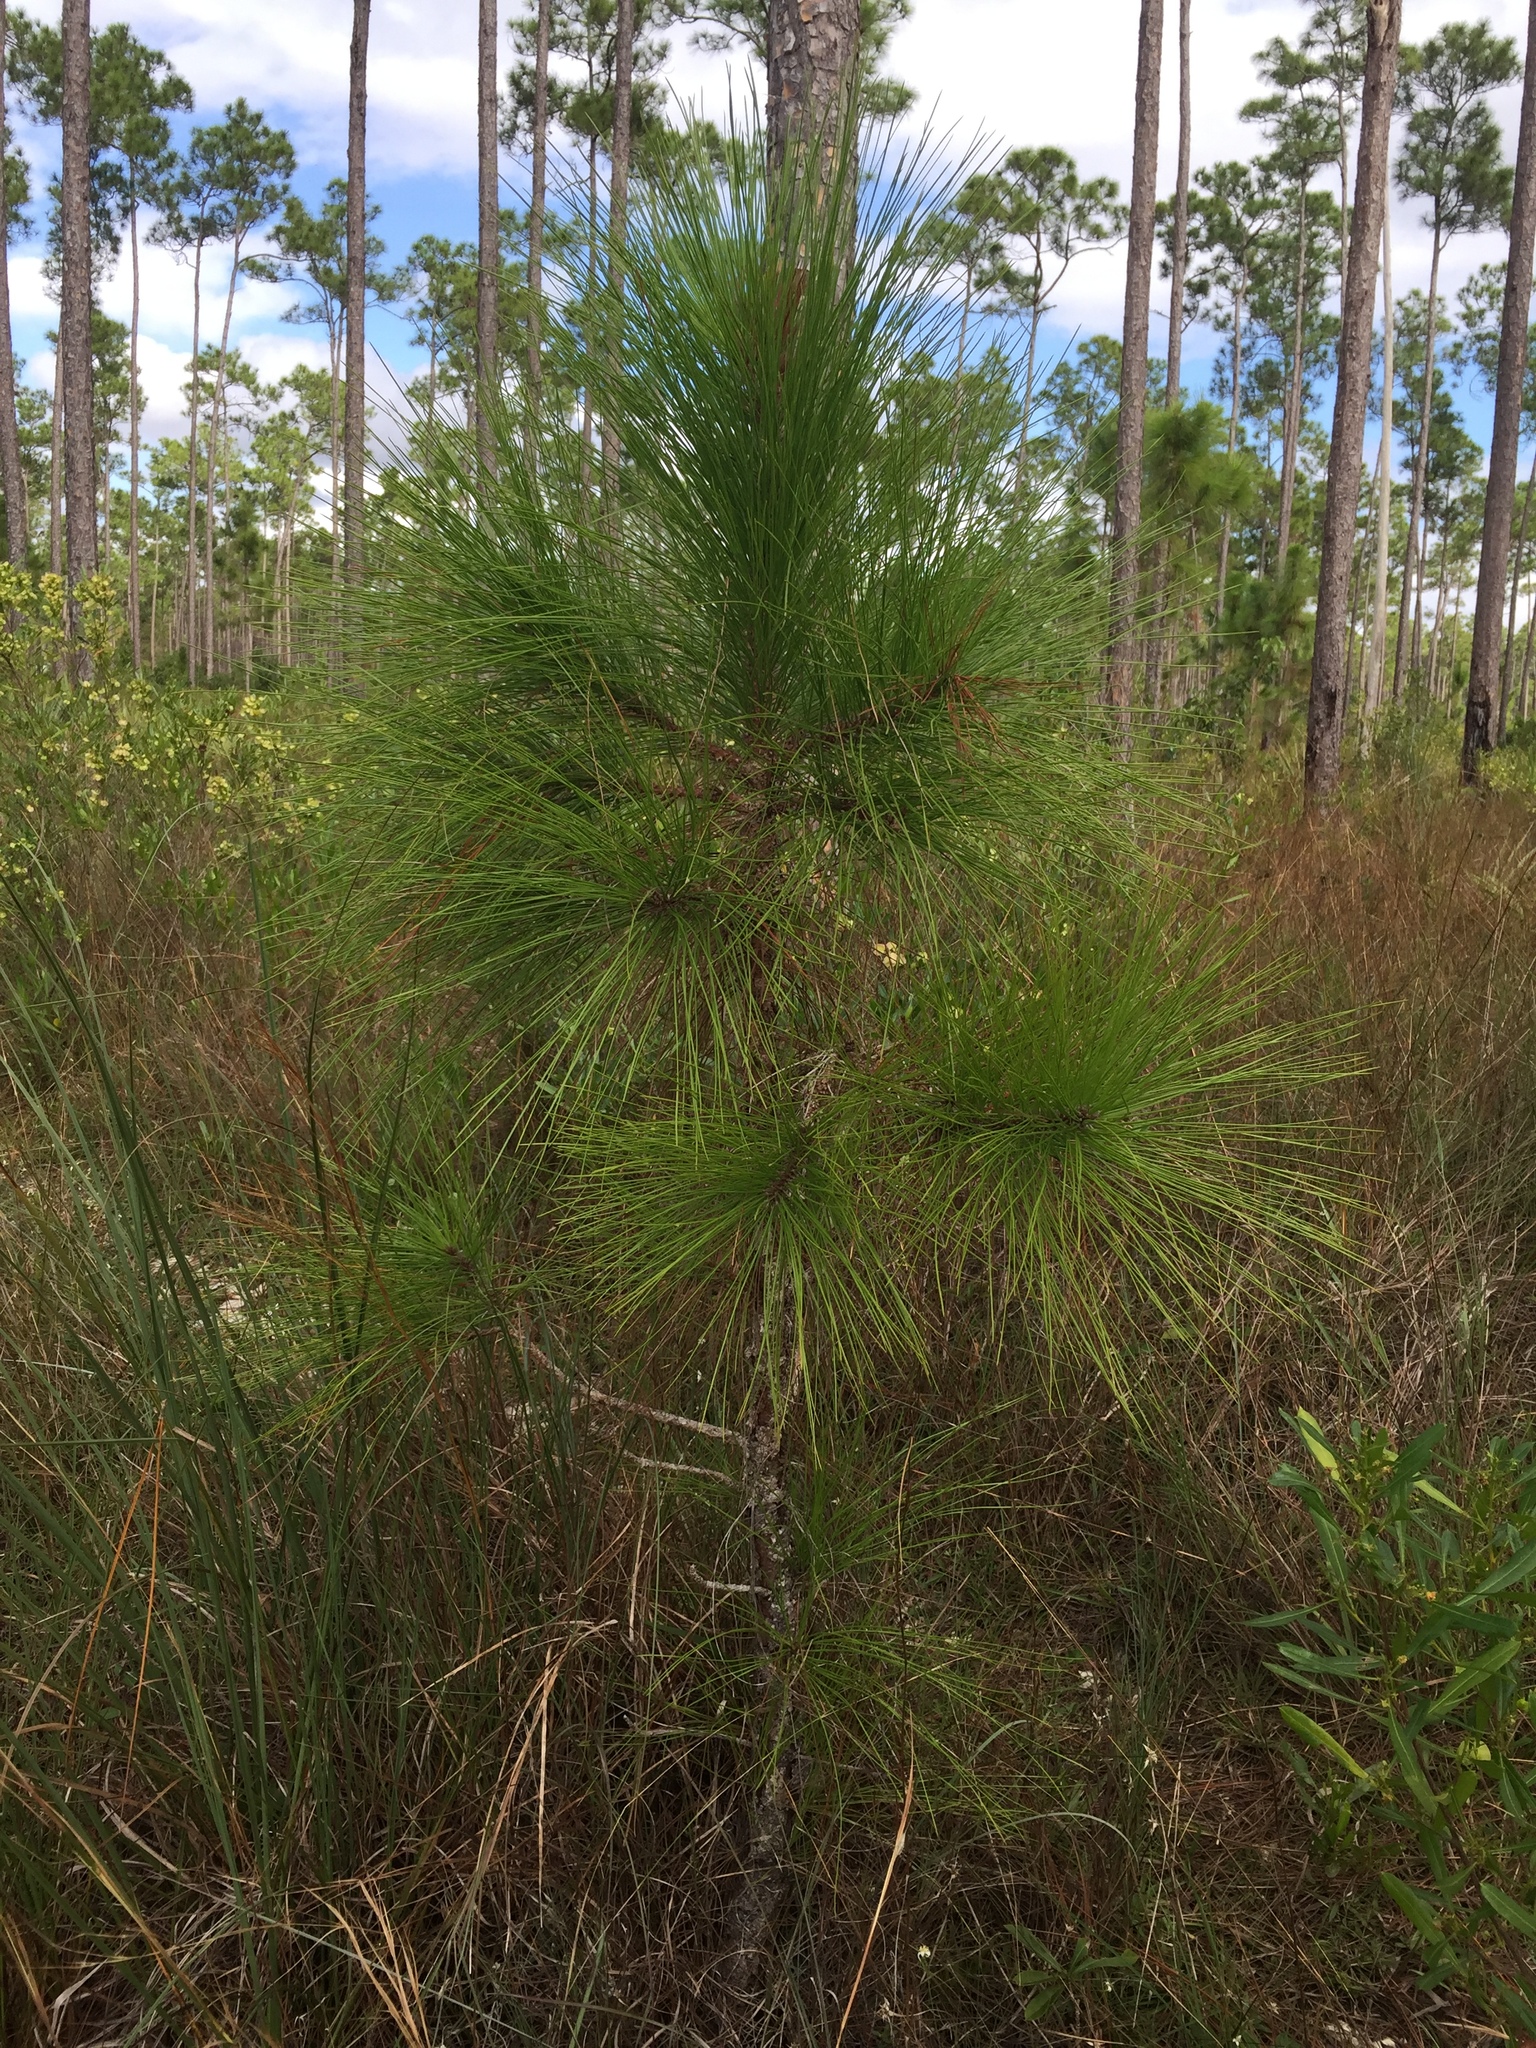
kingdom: Plantae
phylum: Tracheophyta
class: Pinopsida
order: Pinales
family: Pinaceae
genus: Pinus
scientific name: Pinus elliottii
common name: Slash pine
